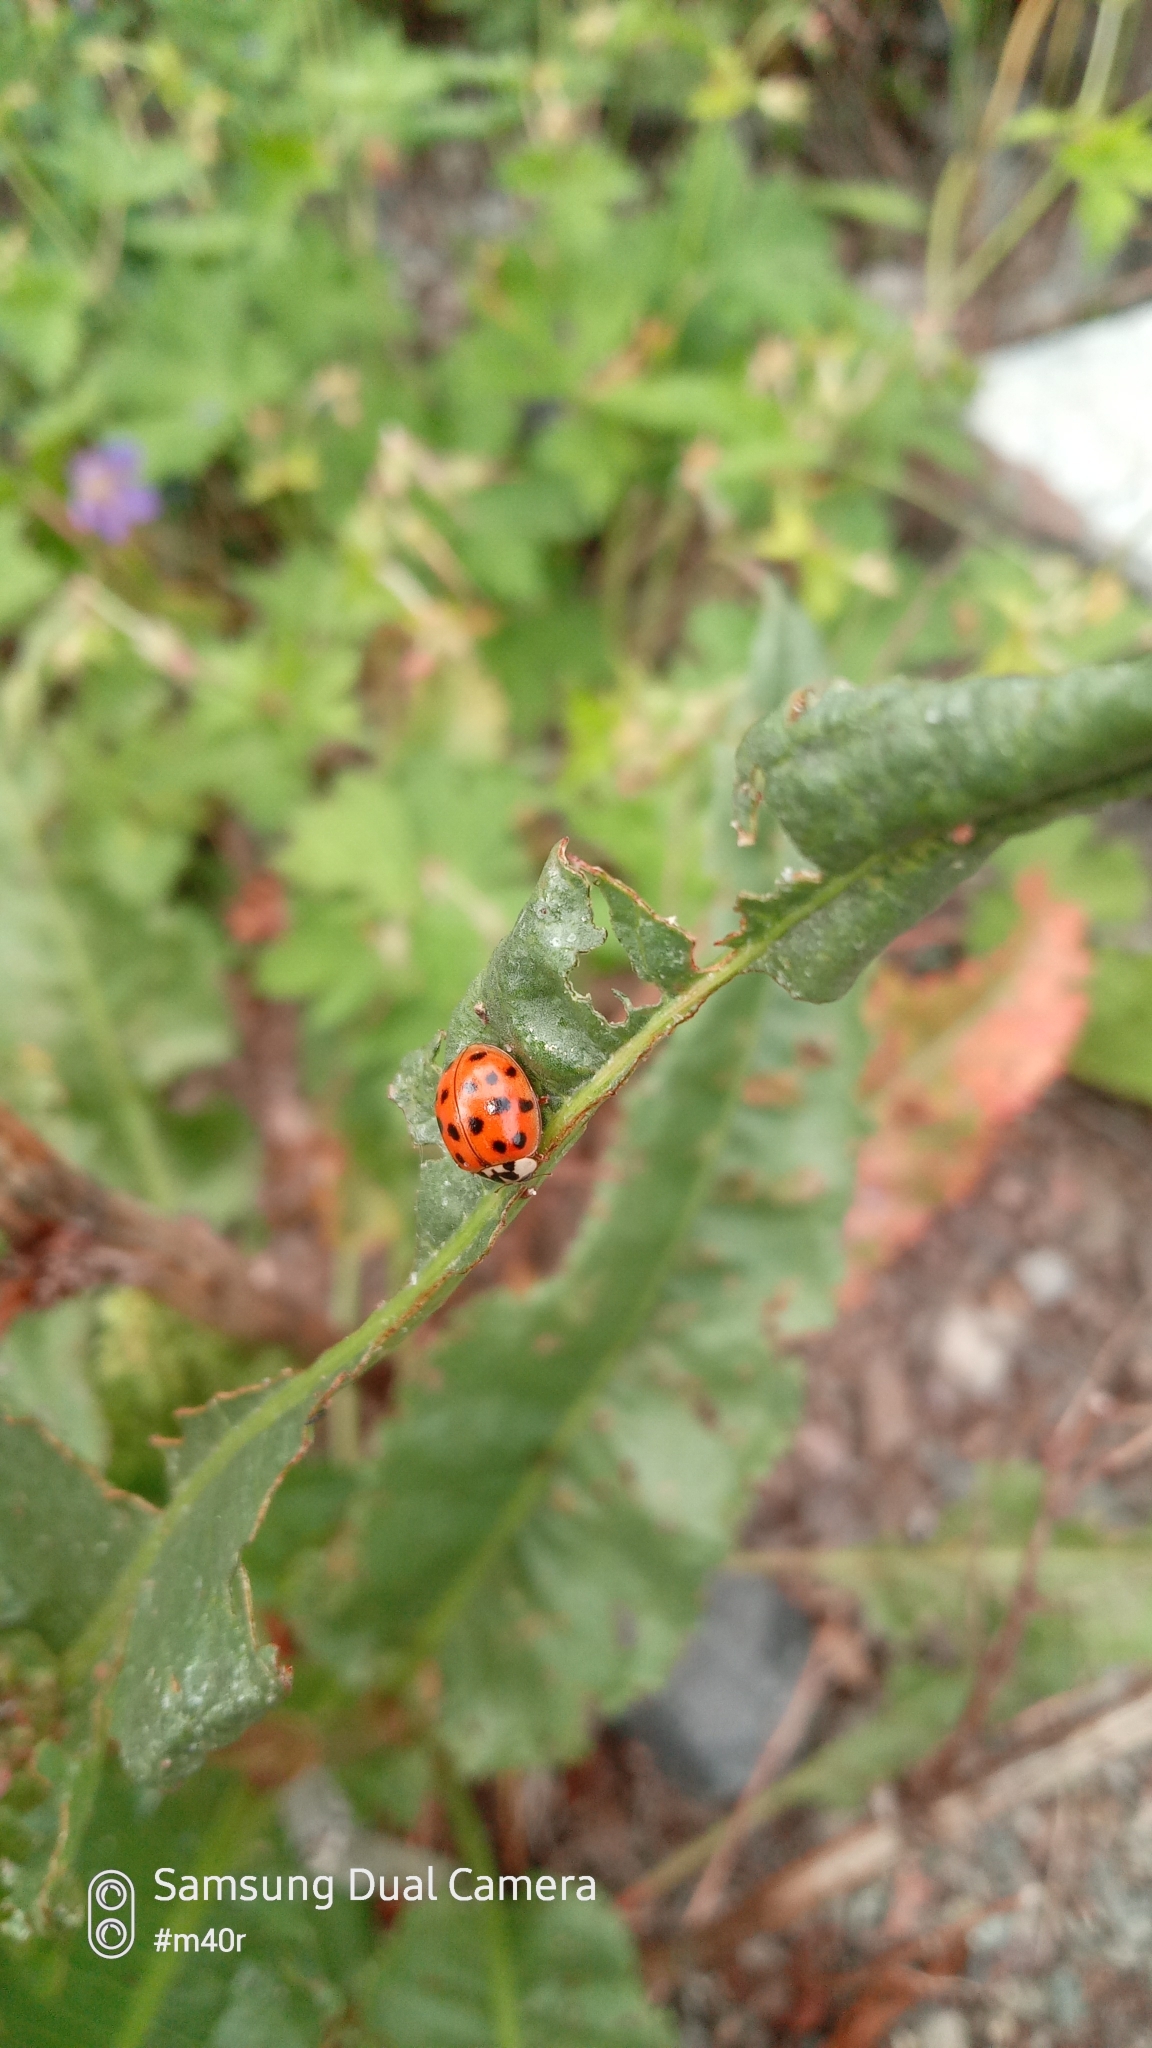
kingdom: Animalia
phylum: Arthropoda
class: Insecta
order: Coleoptera
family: Coccinellidae
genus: Harmonia
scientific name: Harmonia axyridis
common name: Harlequin ladybird
